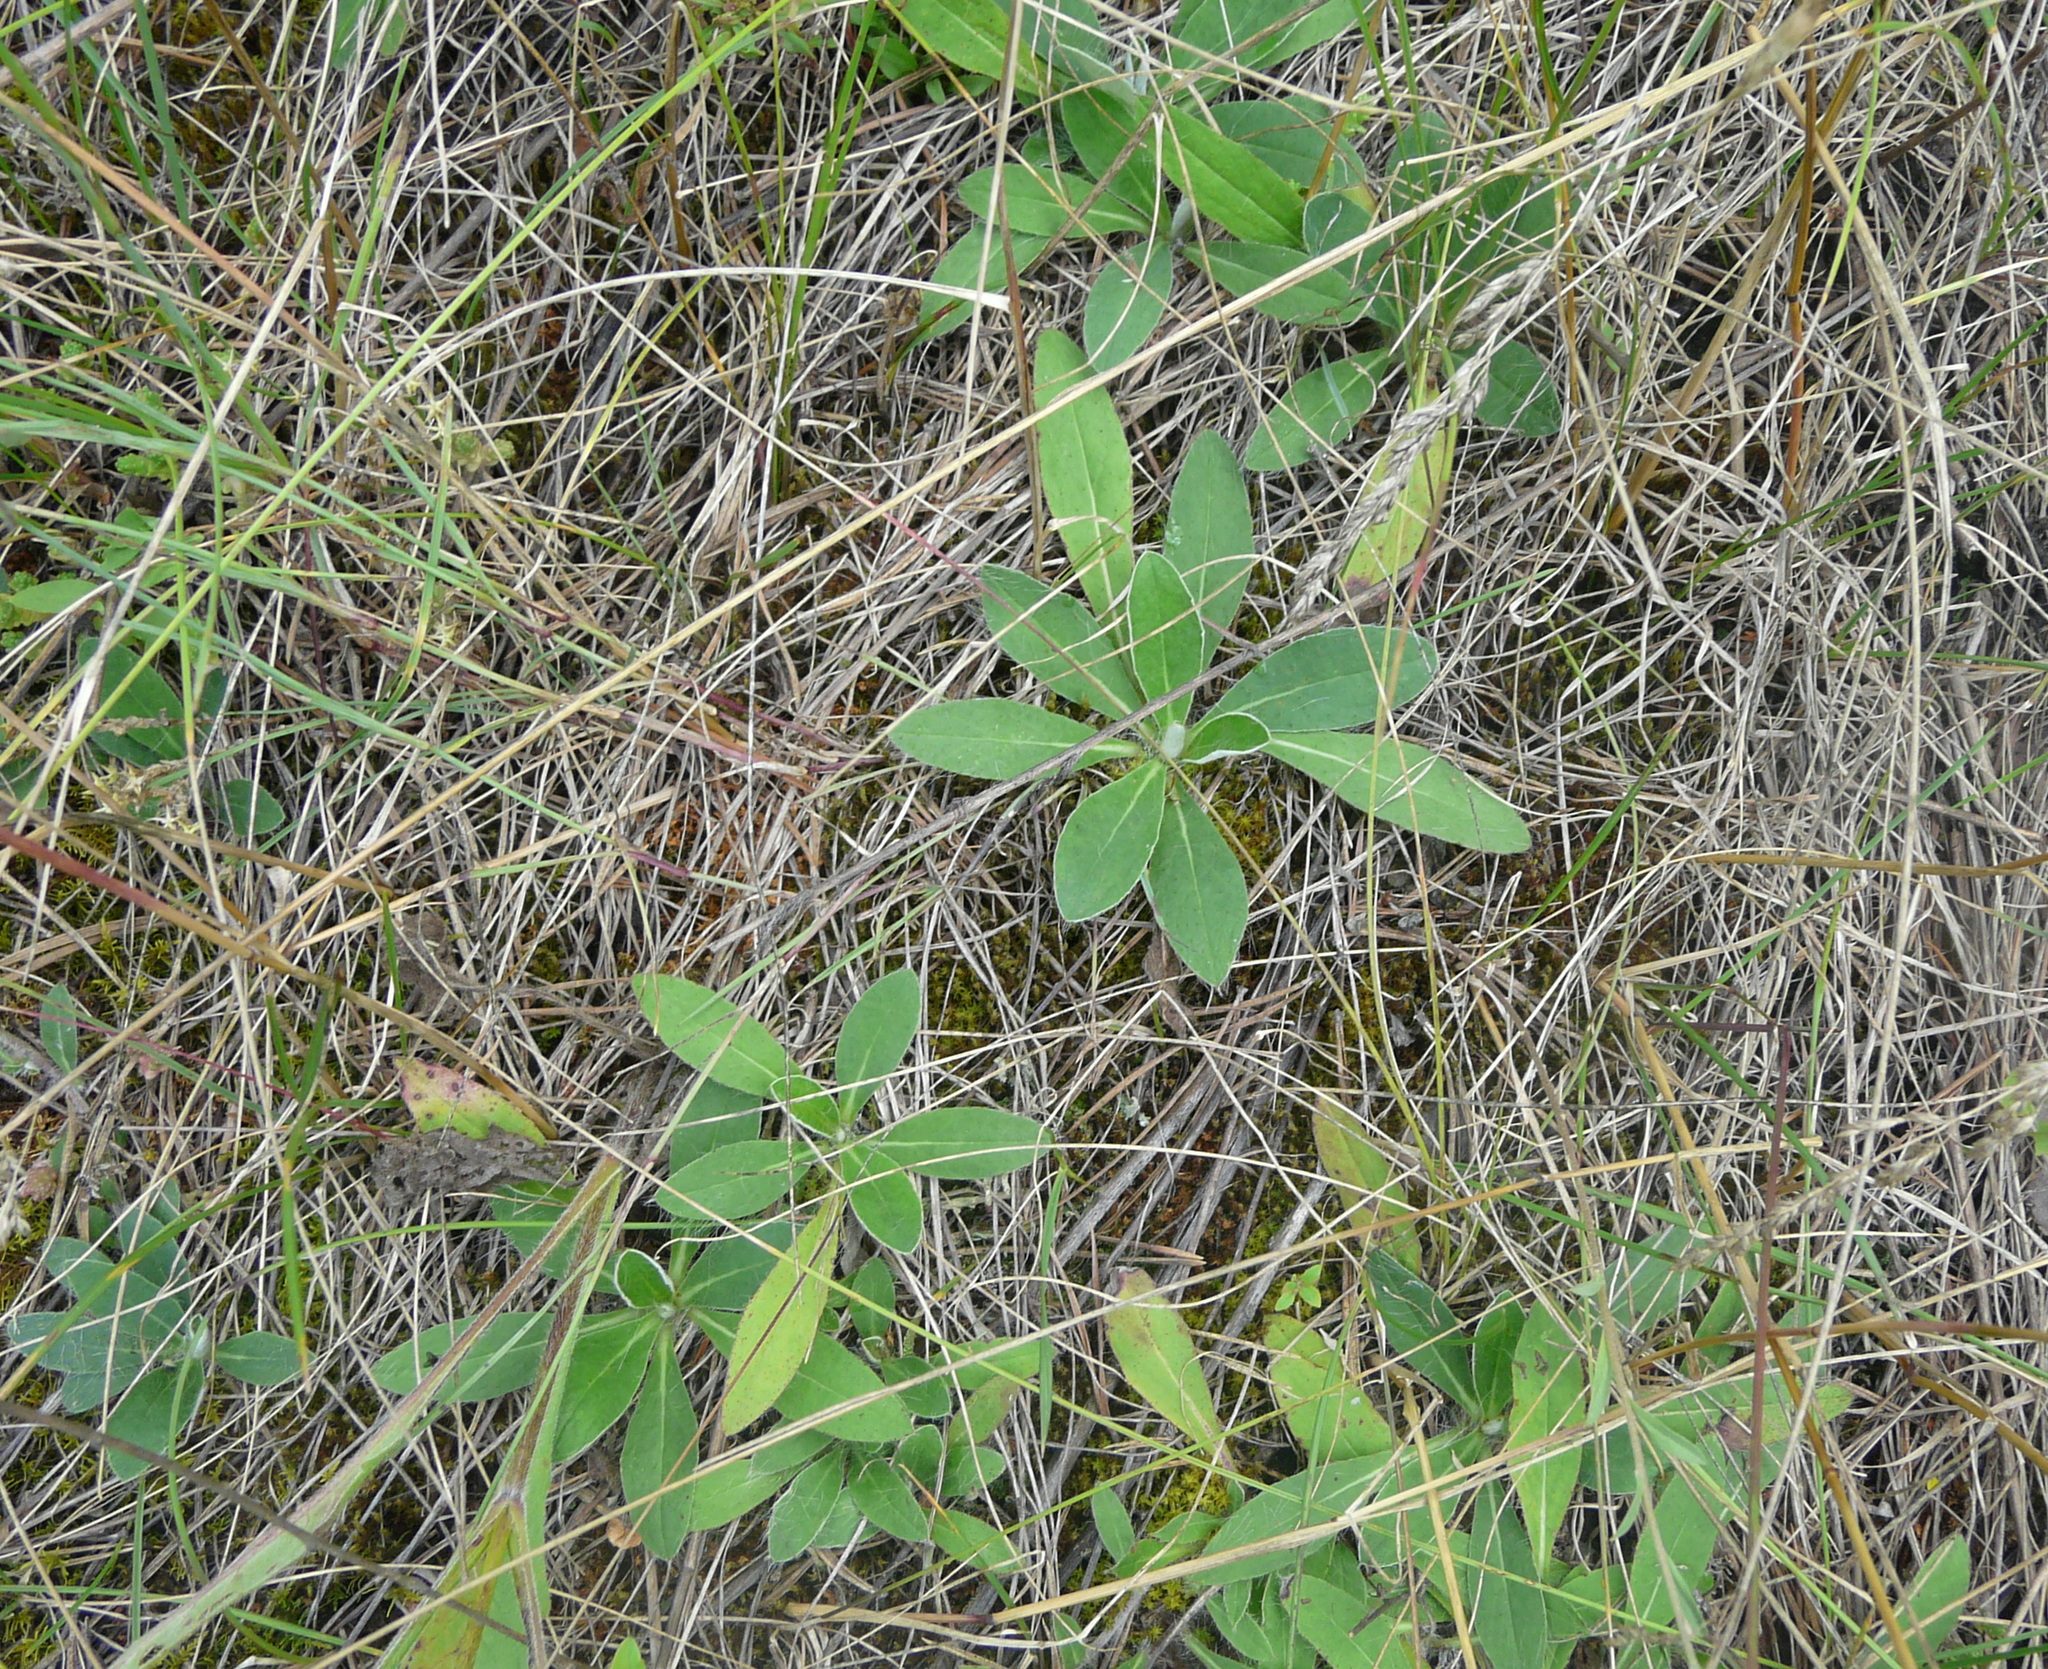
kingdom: Plantae
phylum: Tracheophyta
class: Magnoliopsida
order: Asterales
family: Asteraceae
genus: Pilosella
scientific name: Pilosella officinarum
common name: Mouse-ear hawkweed
